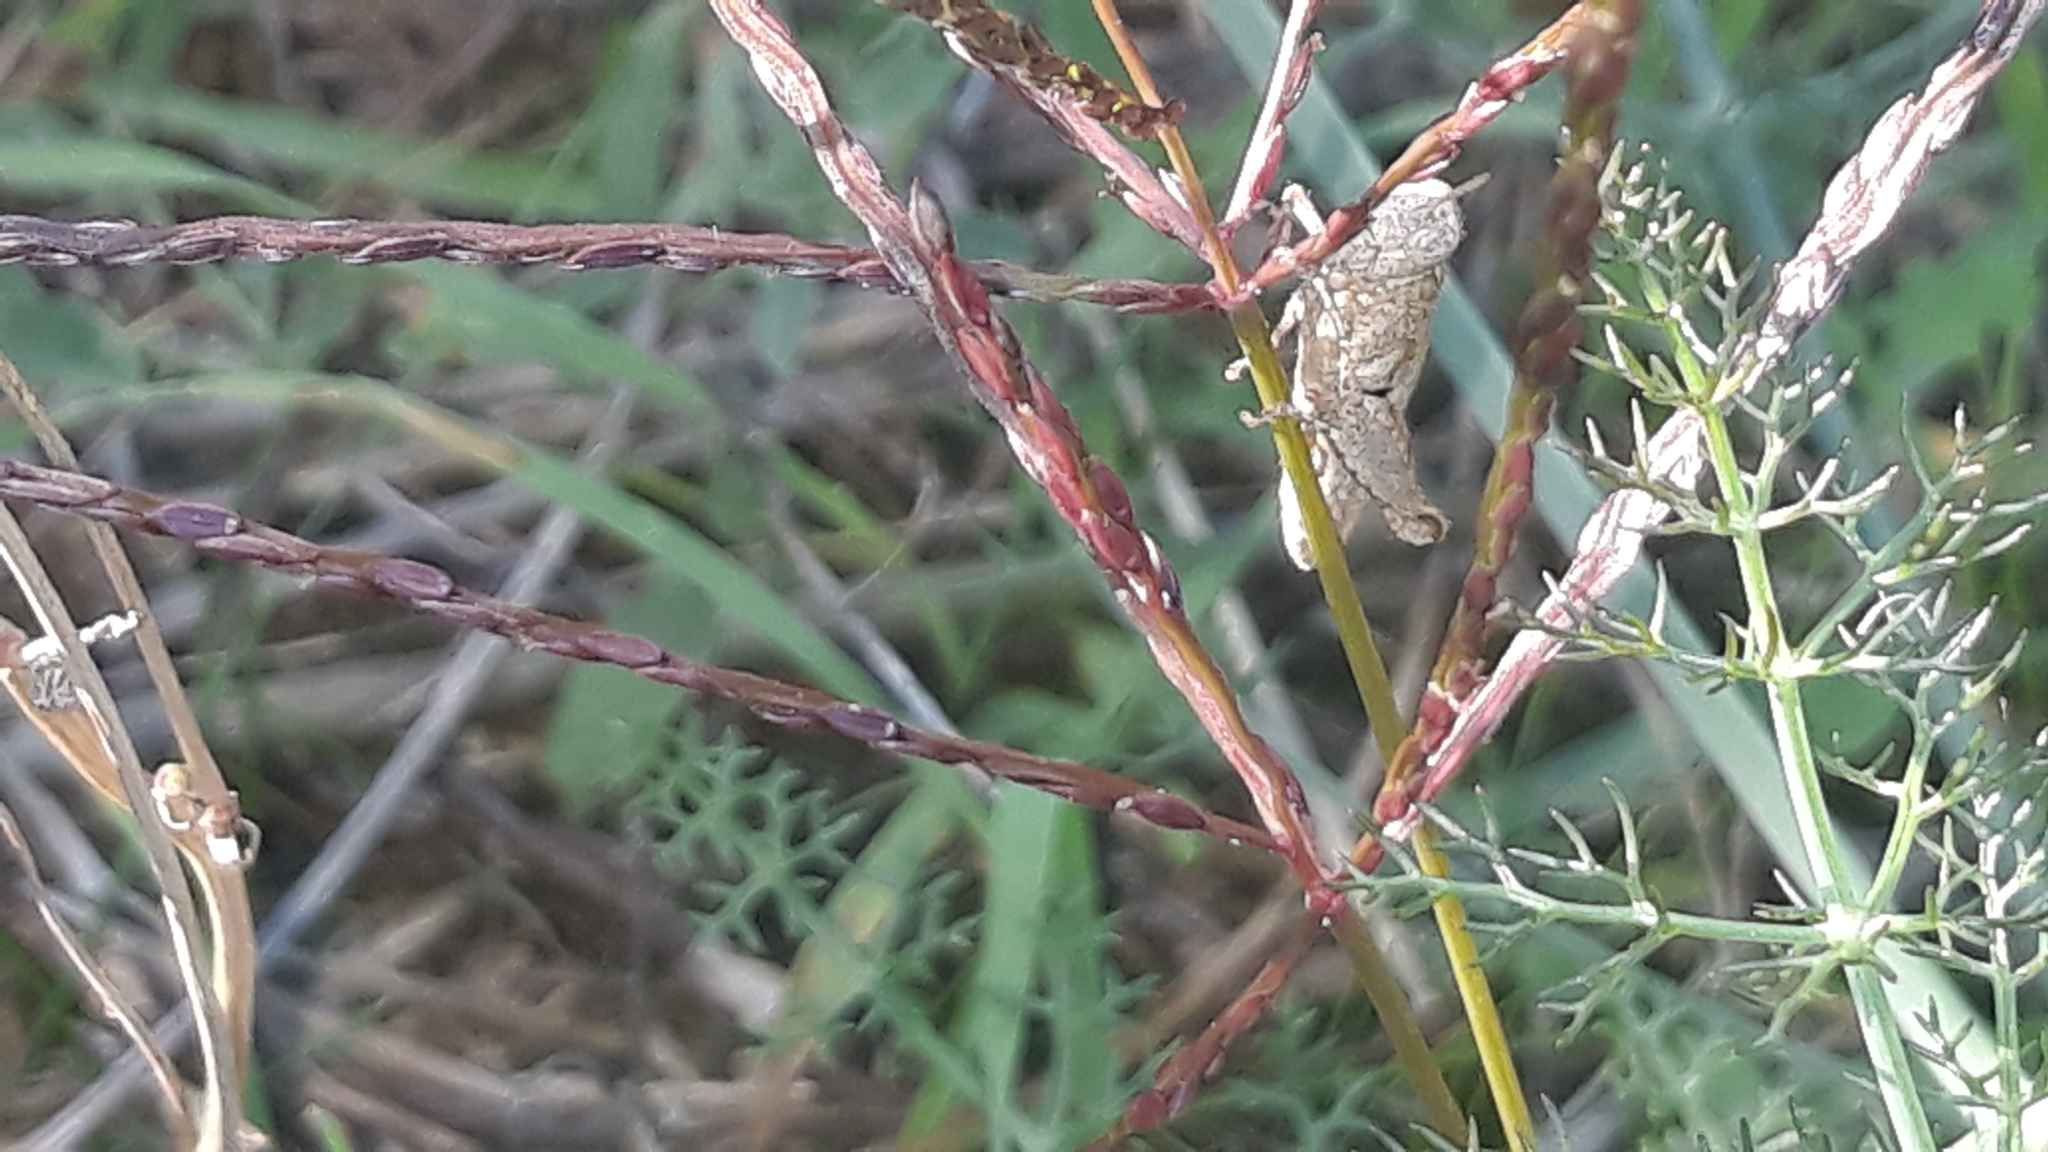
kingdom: Animalia
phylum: Arthropoda
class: Insecta
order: Orthoptera
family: Acrididae
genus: Pezotettix
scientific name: Pezotettix giornae
